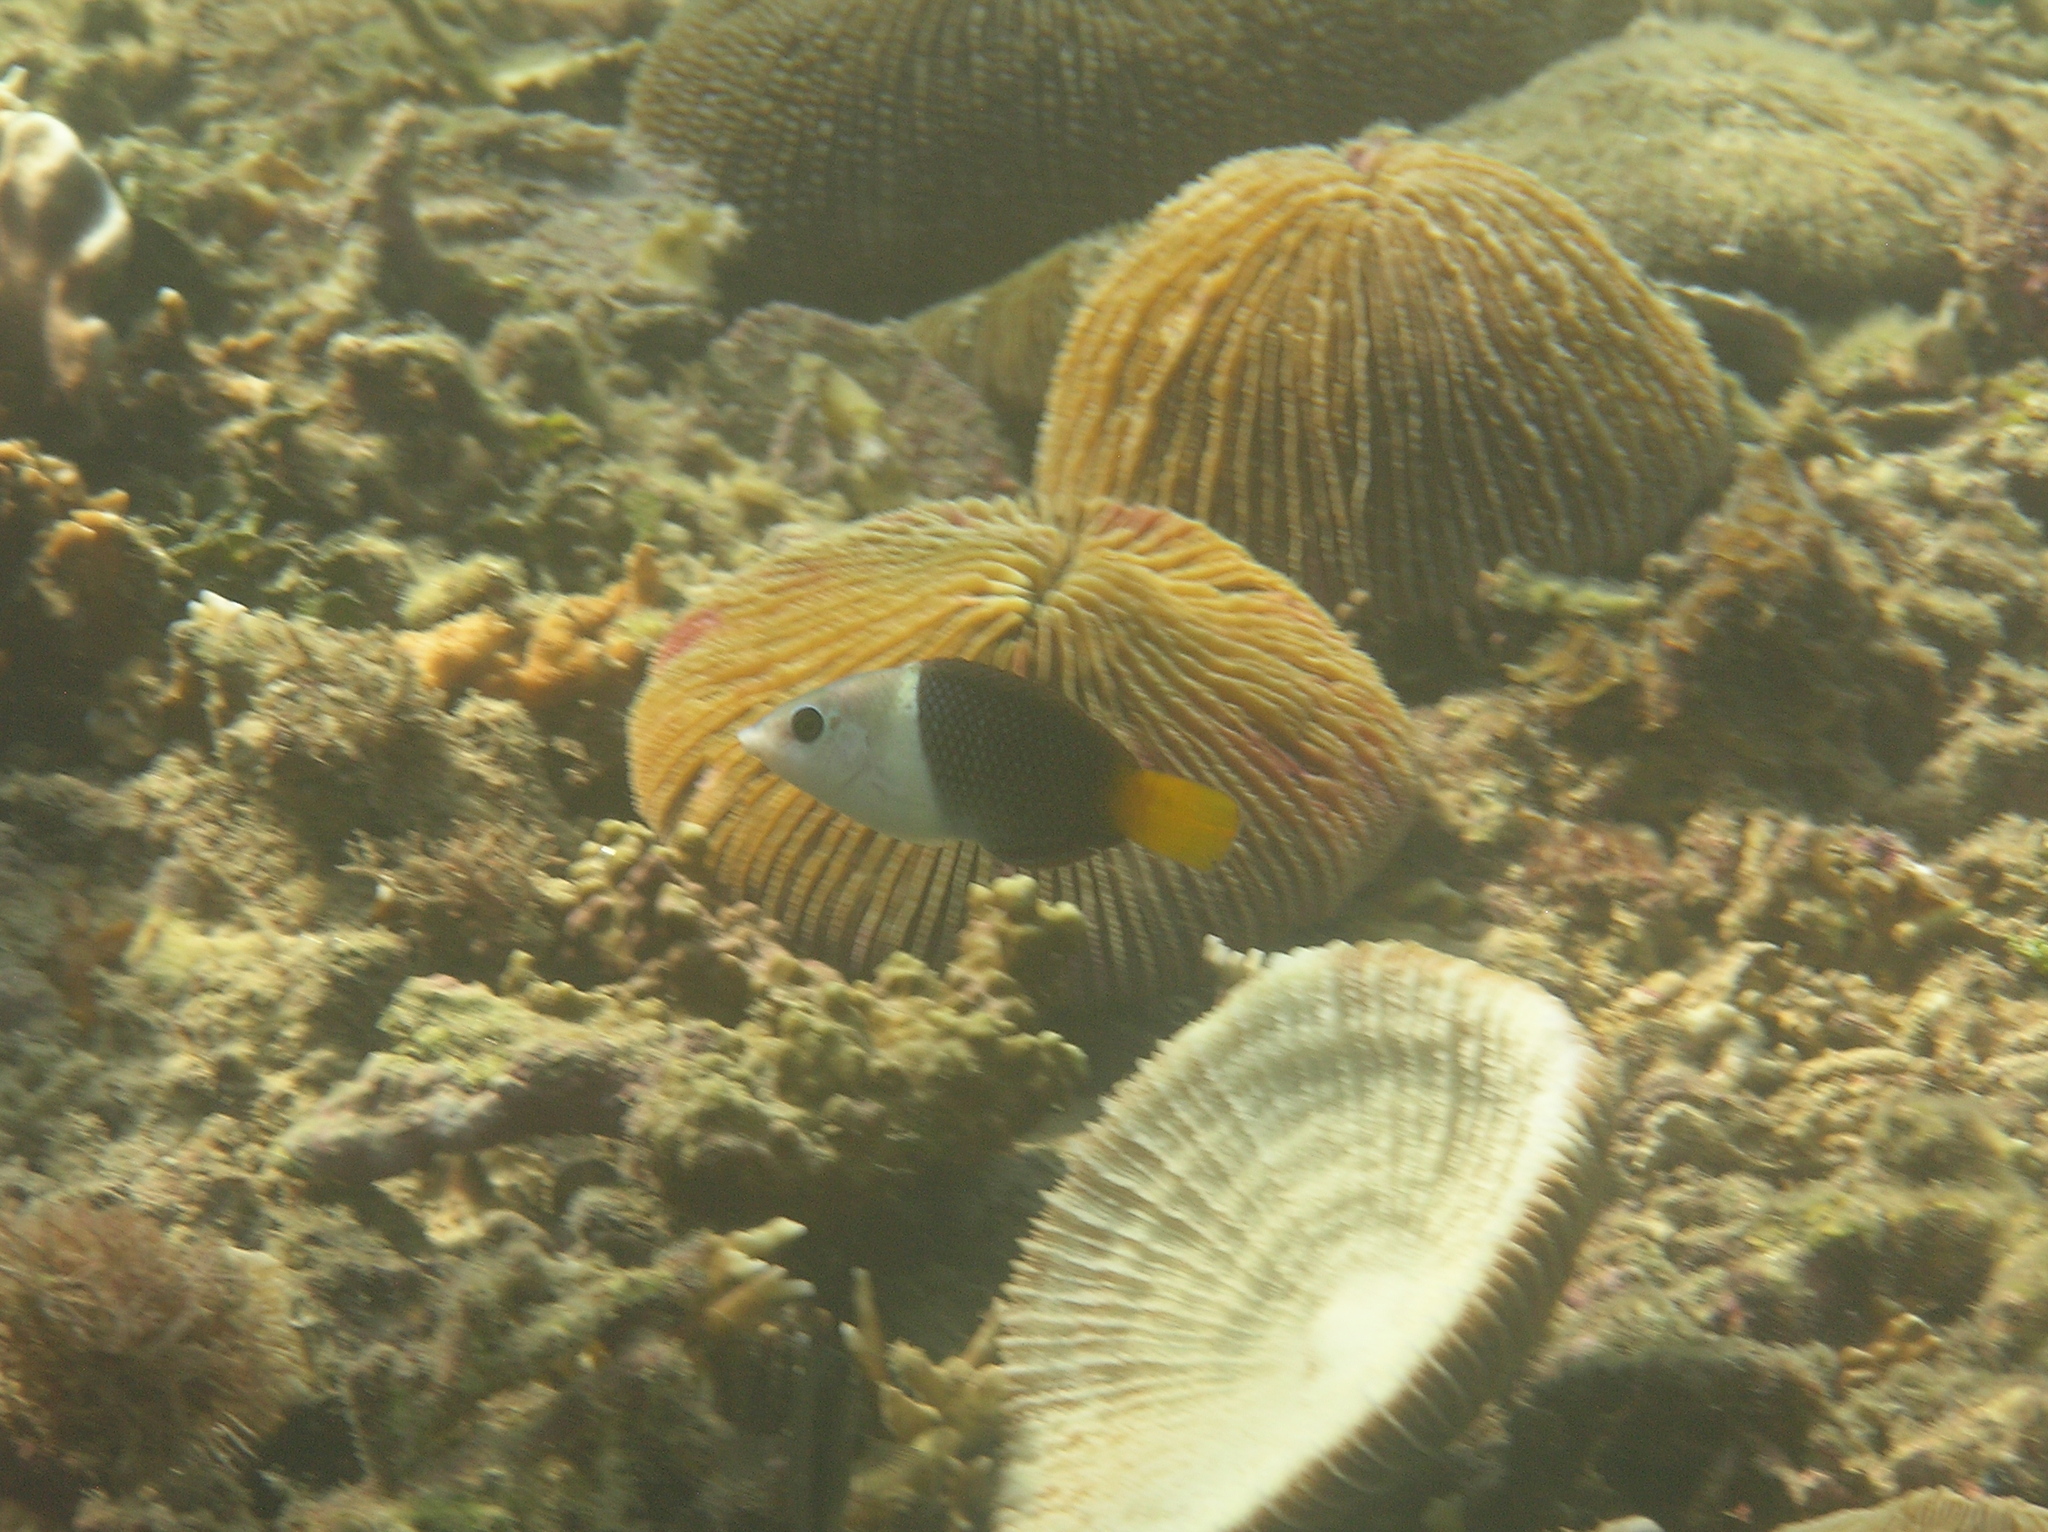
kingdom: Animalia
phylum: Chordata
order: Perciformes
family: Labridae
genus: Hemigymnus
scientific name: Hemigymnus melapterus
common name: Blackeye thicklip
